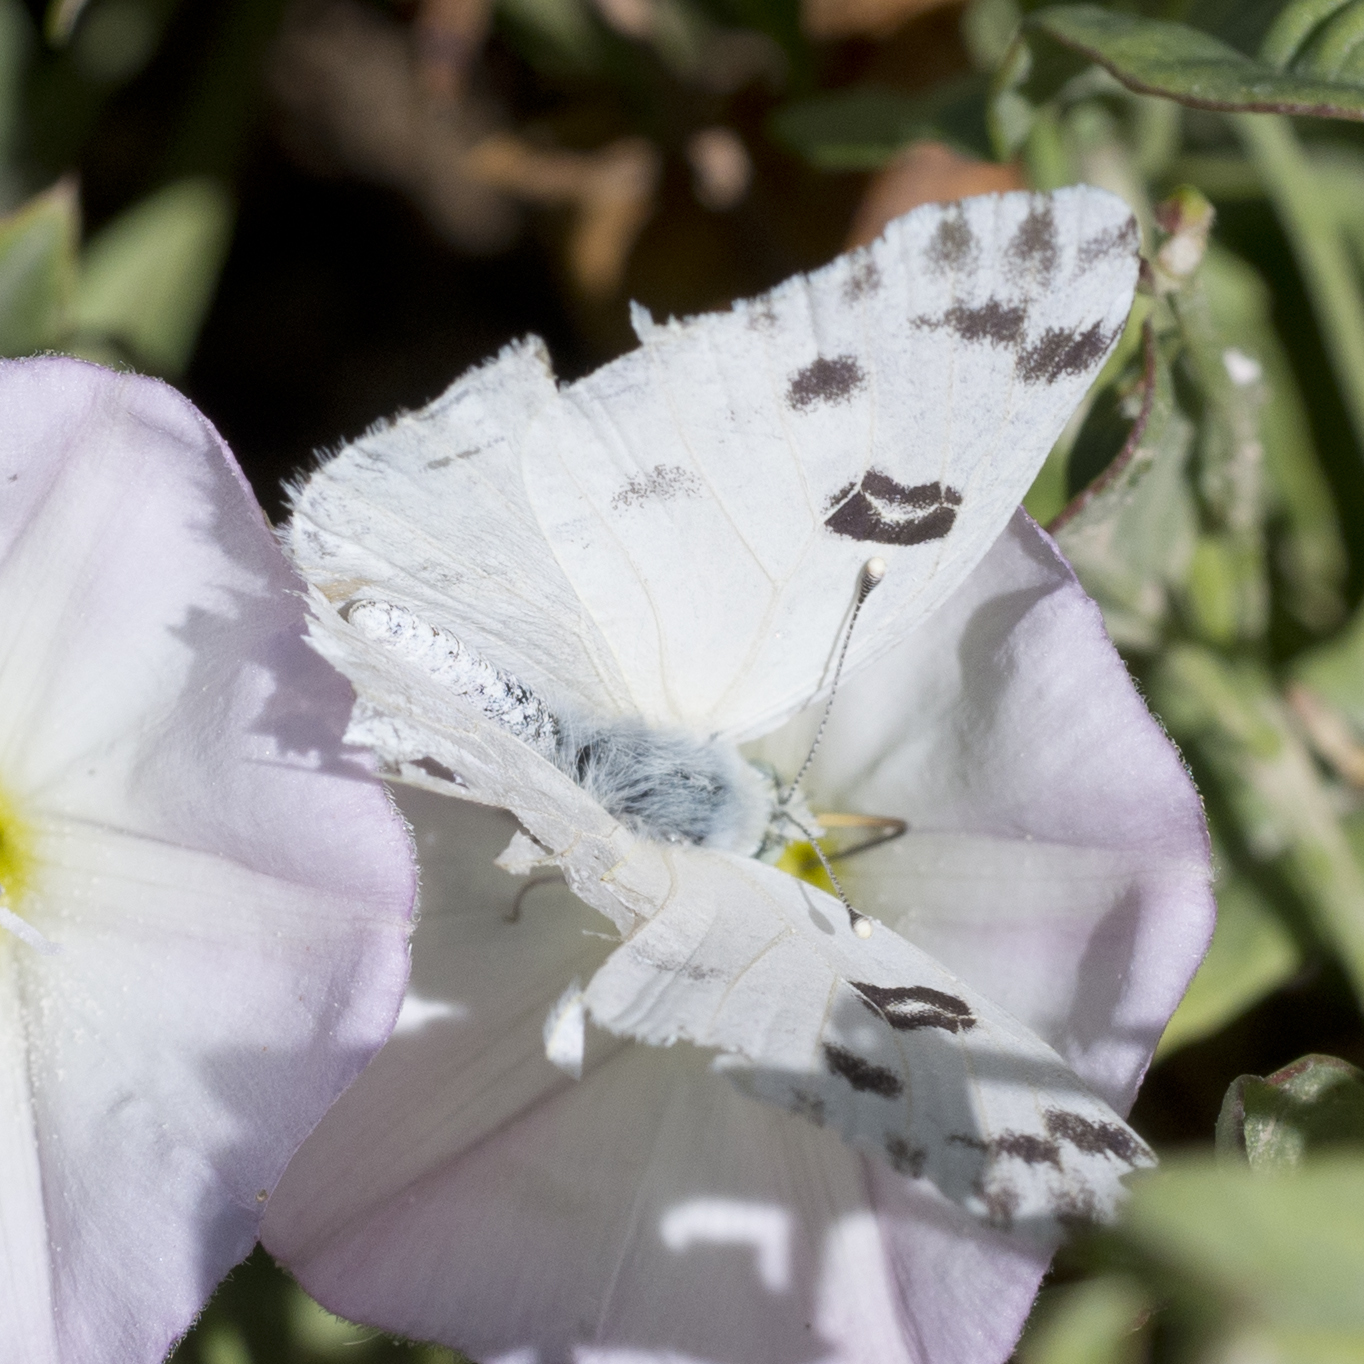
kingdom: Animalia
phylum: Arthropoda
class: Insecta
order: Lepidoptera
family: Pieridae
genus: Pontia
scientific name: Pontia beckerii
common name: Becker's white
